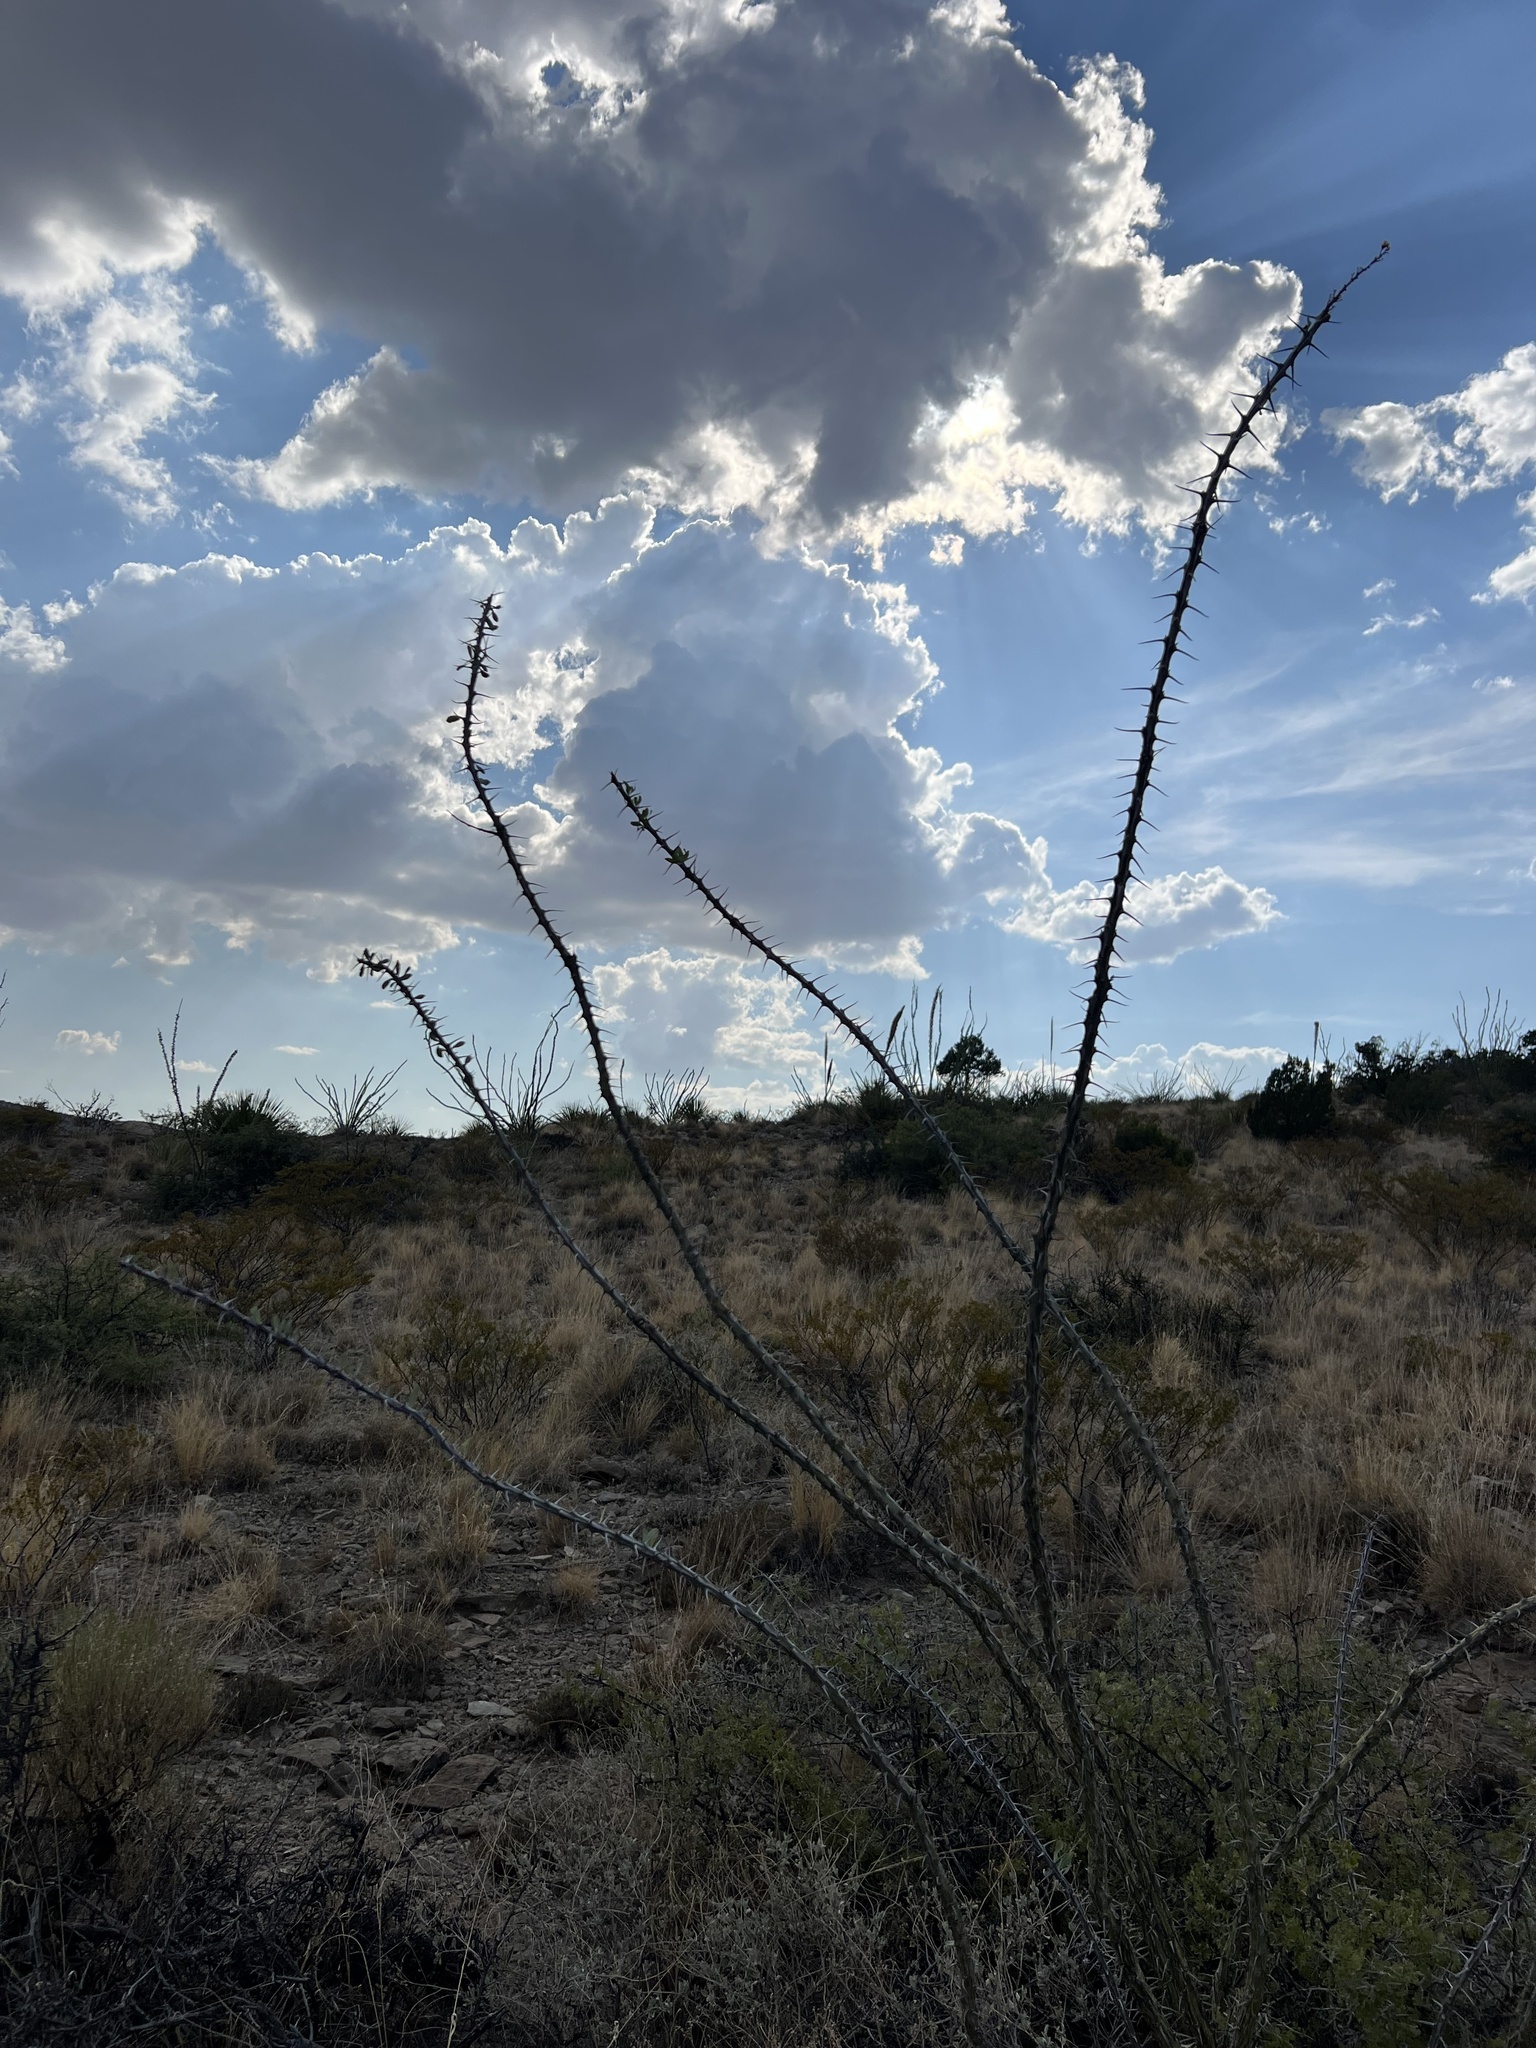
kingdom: Plantae
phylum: Tracheophyta
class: Magnoliopsida
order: Ericales
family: Fouquieriaceae
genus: Fouquieria
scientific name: Fouquieria splendens
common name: Vine-cactus
